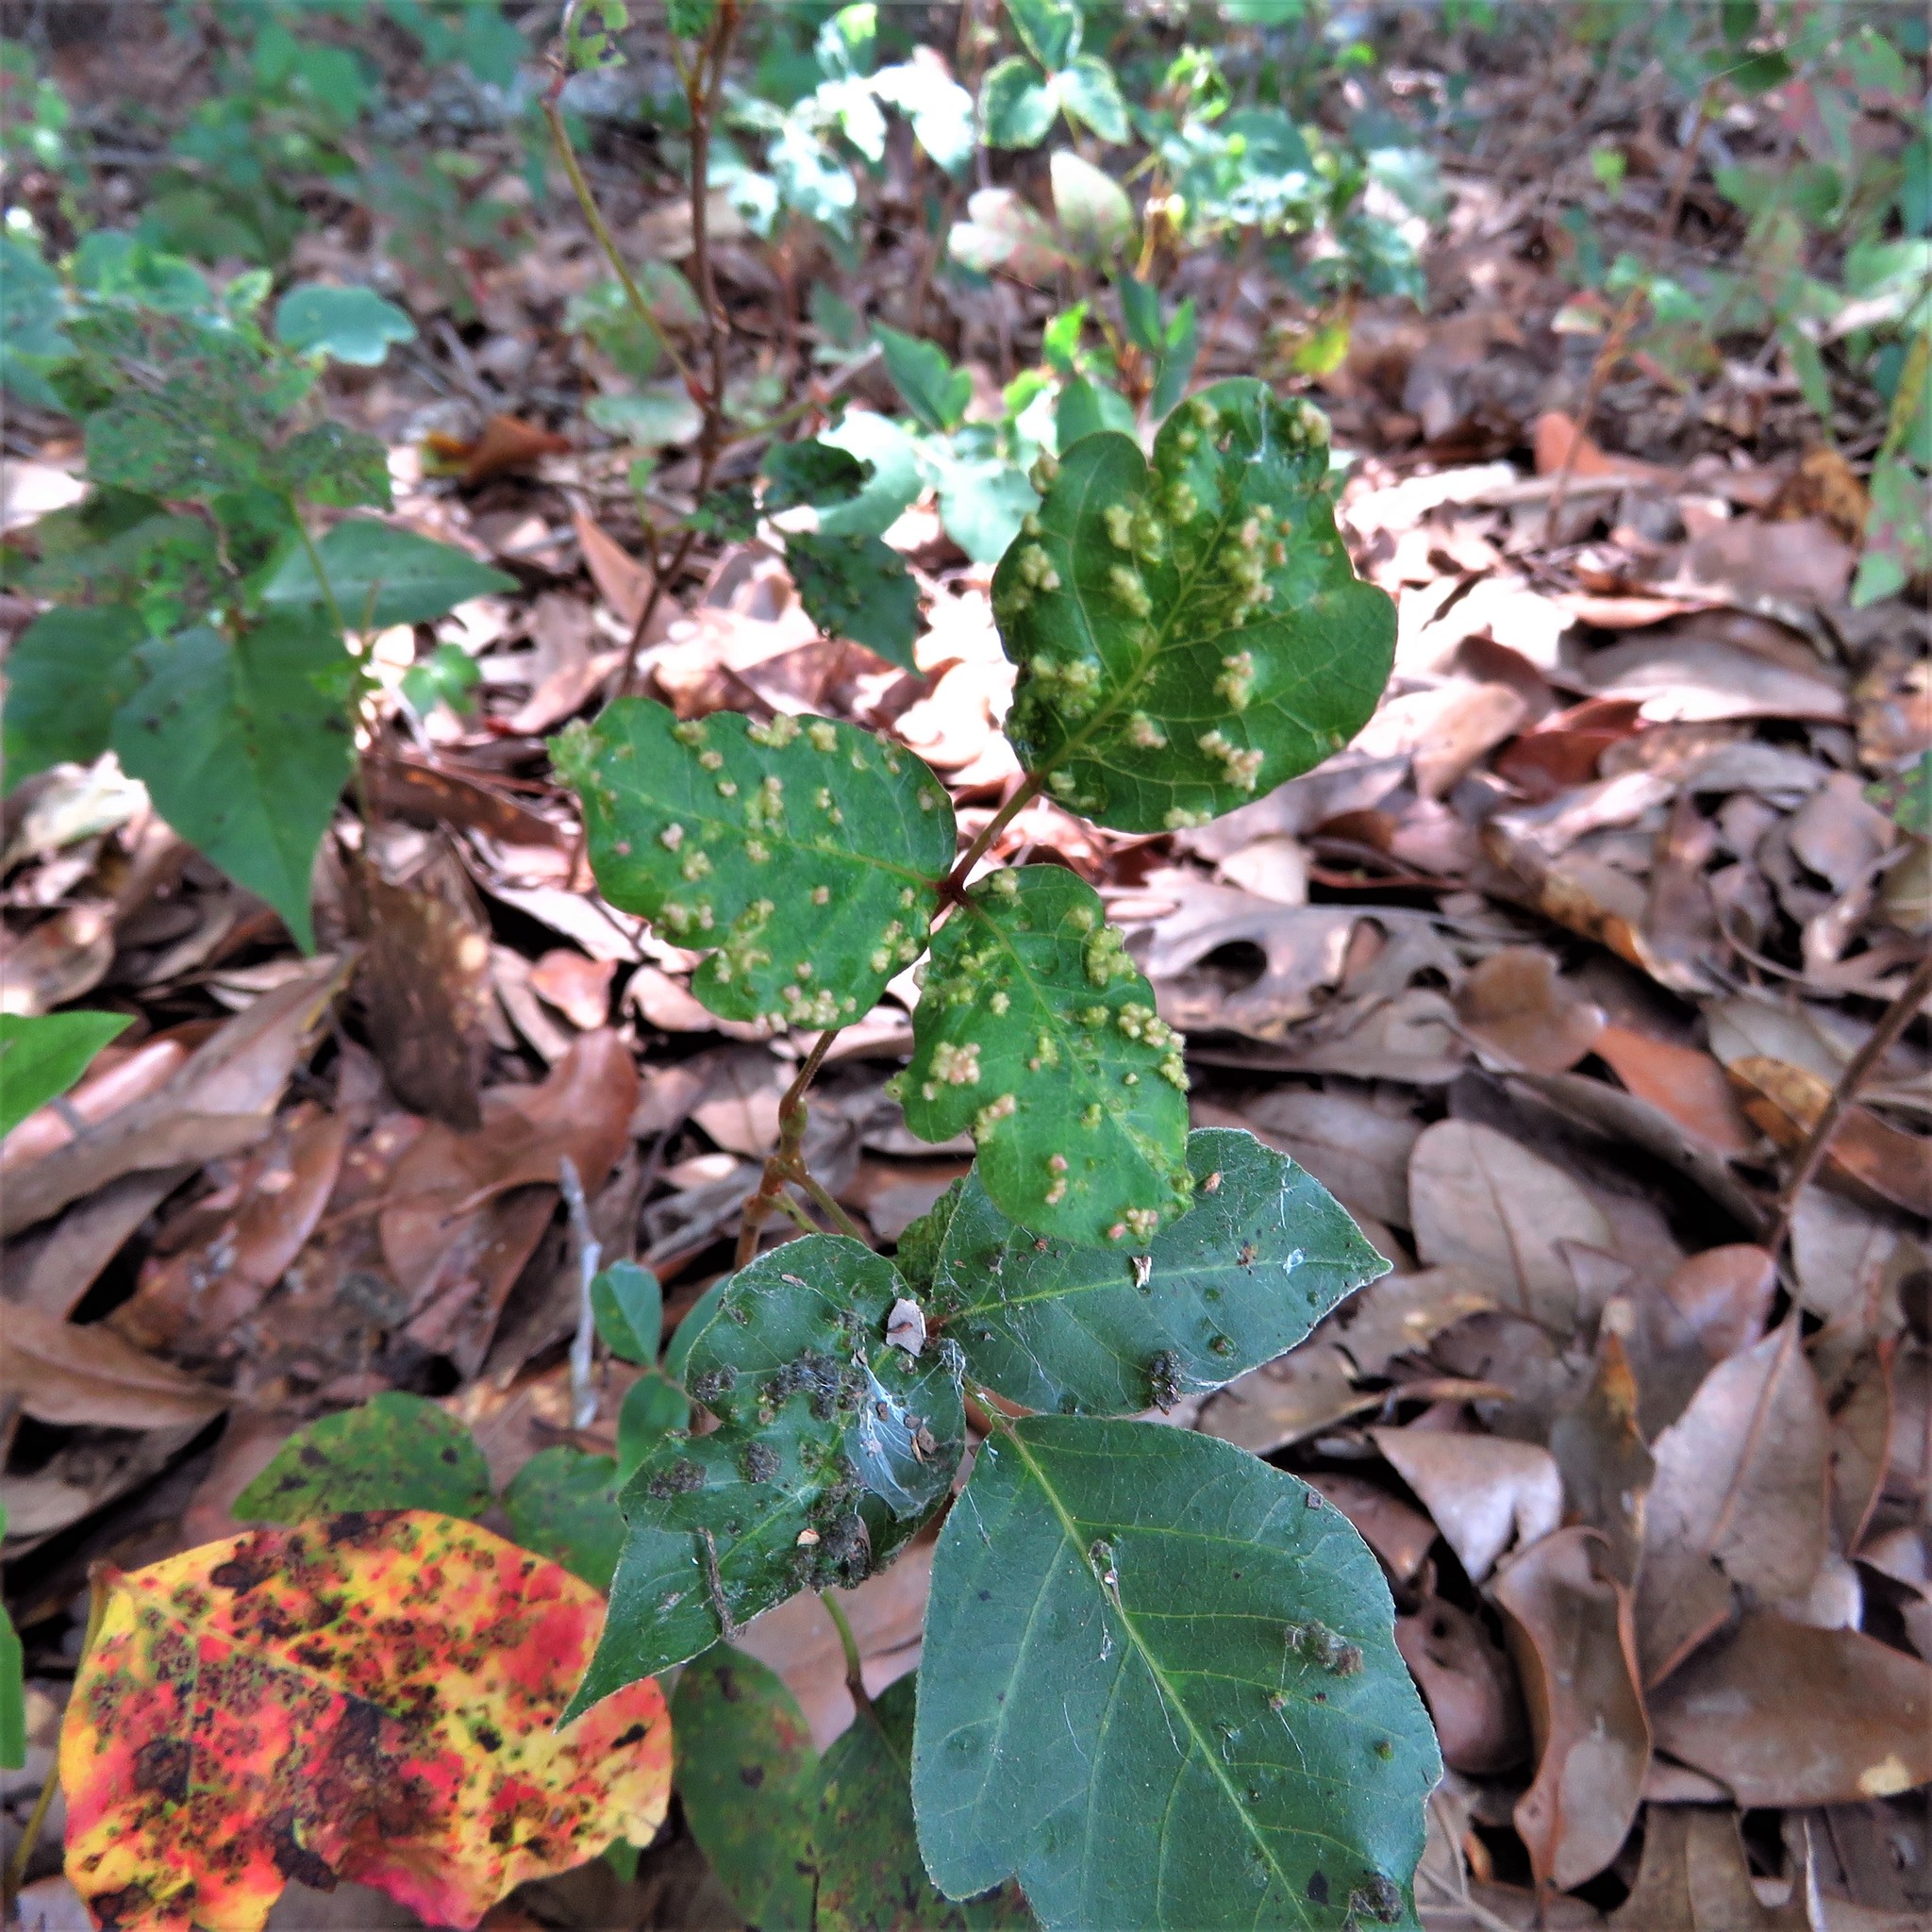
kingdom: Animalia
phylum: Arthropoda
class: Arachnida
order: Trombidiformes
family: Eriophyidae
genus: Aculops
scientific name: Aculops
